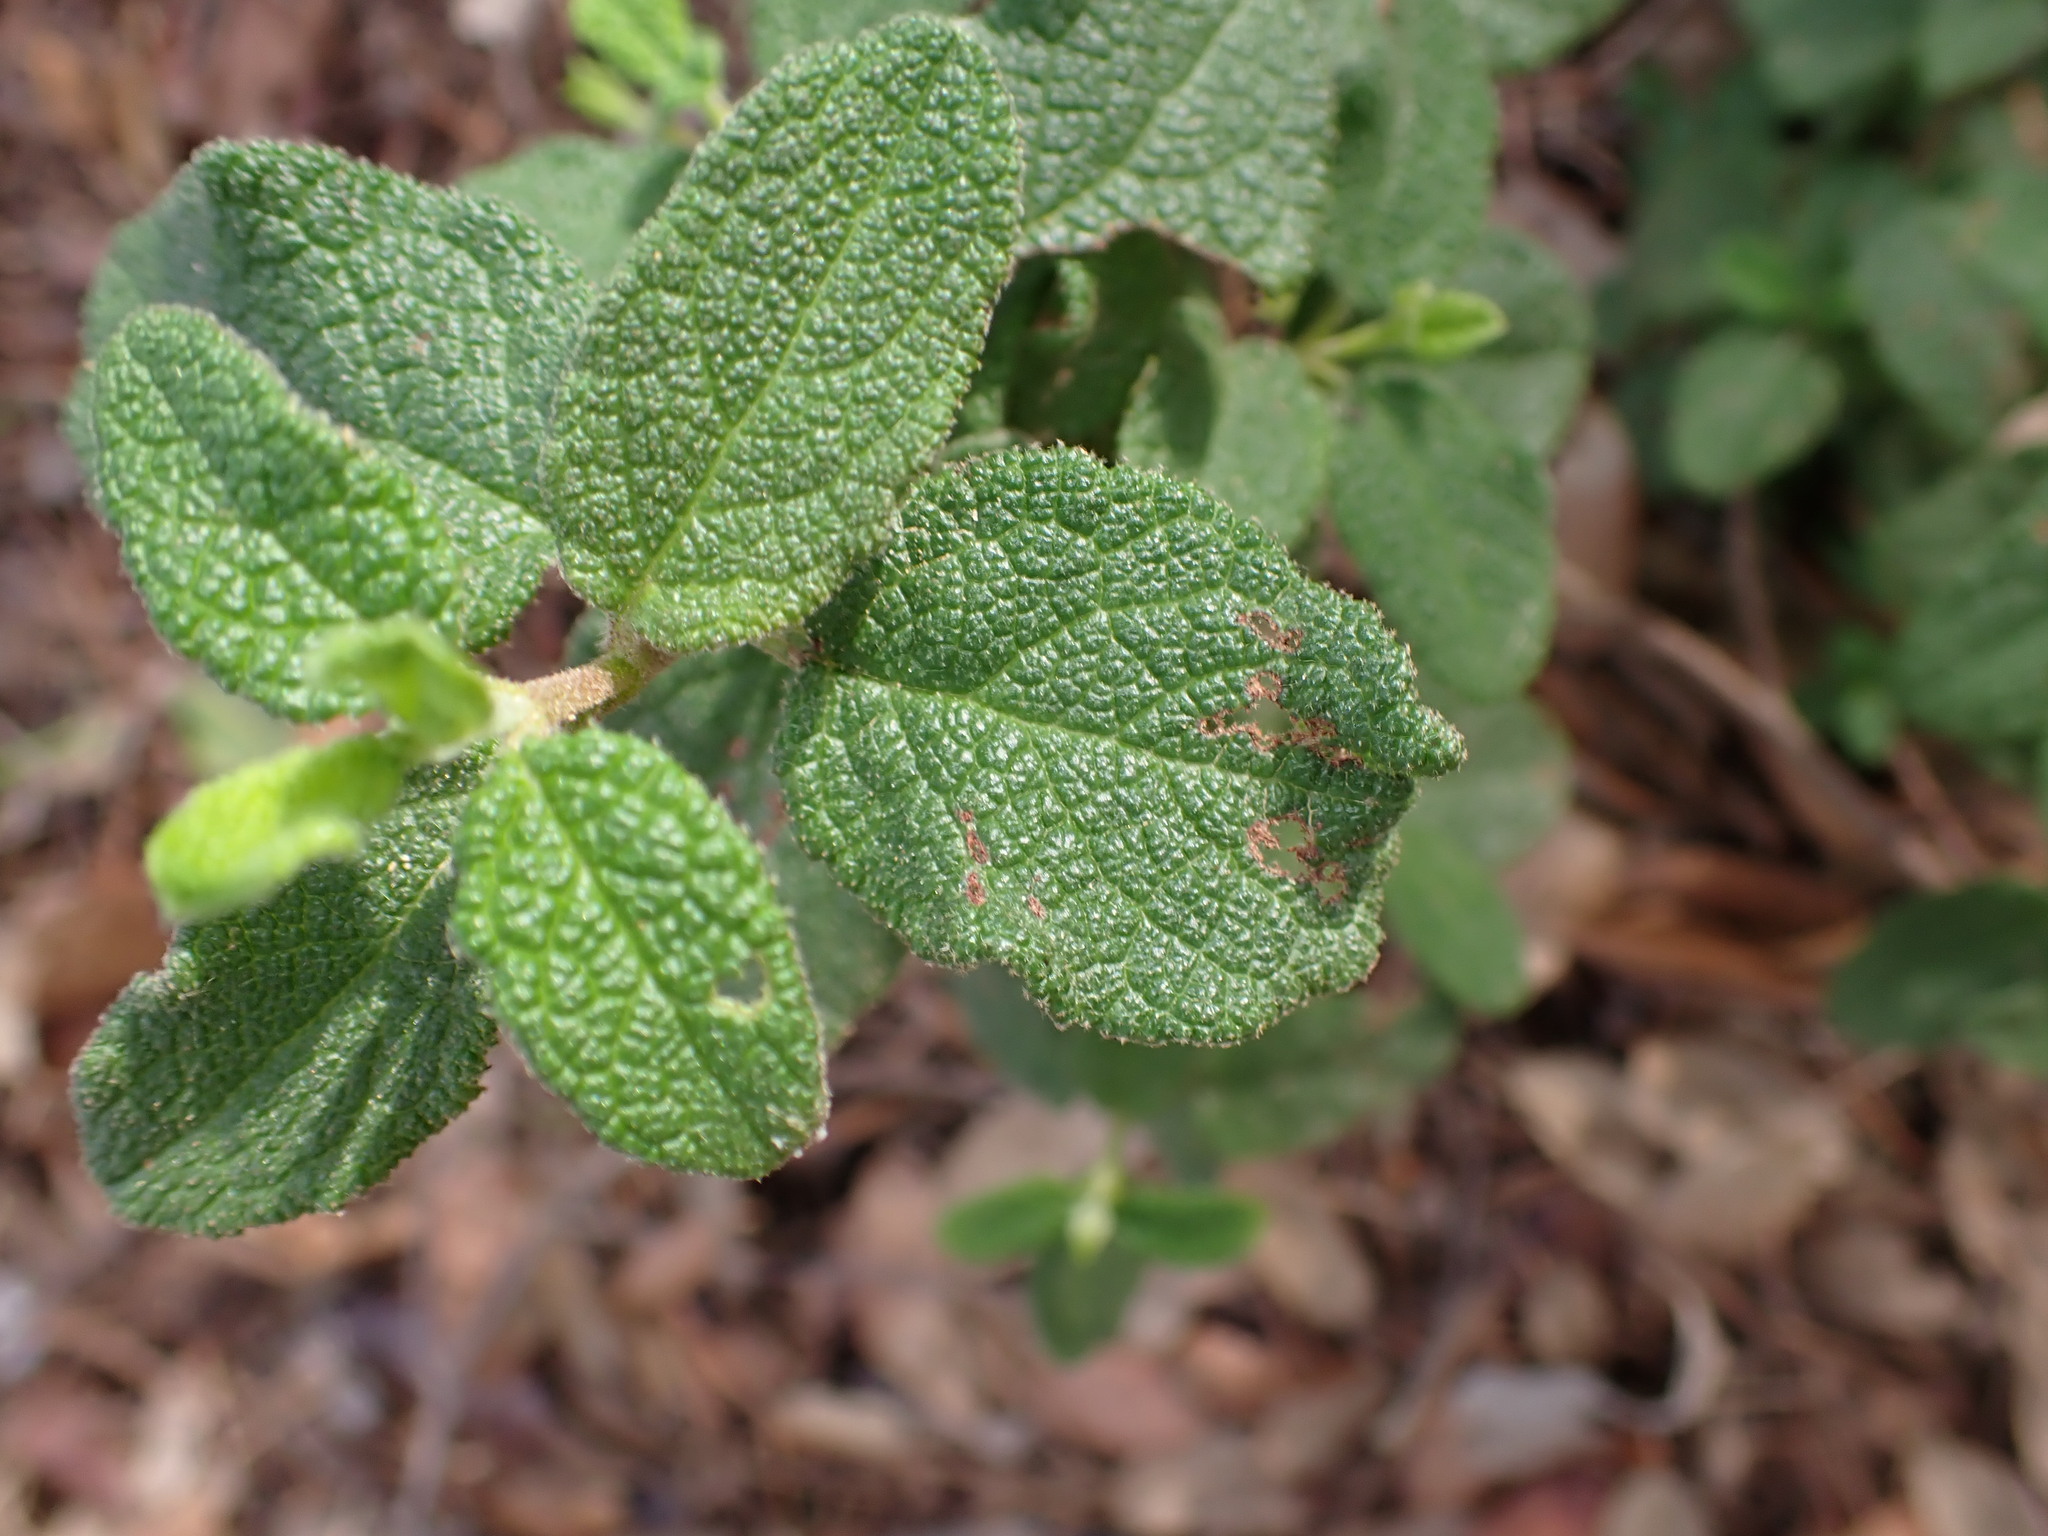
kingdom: Plantae
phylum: Tracheophyta
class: Magnoliopsida
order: Malvales
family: Cistaceae
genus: Cistus
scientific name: Cistus salviifolius
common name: Salvia cistus
